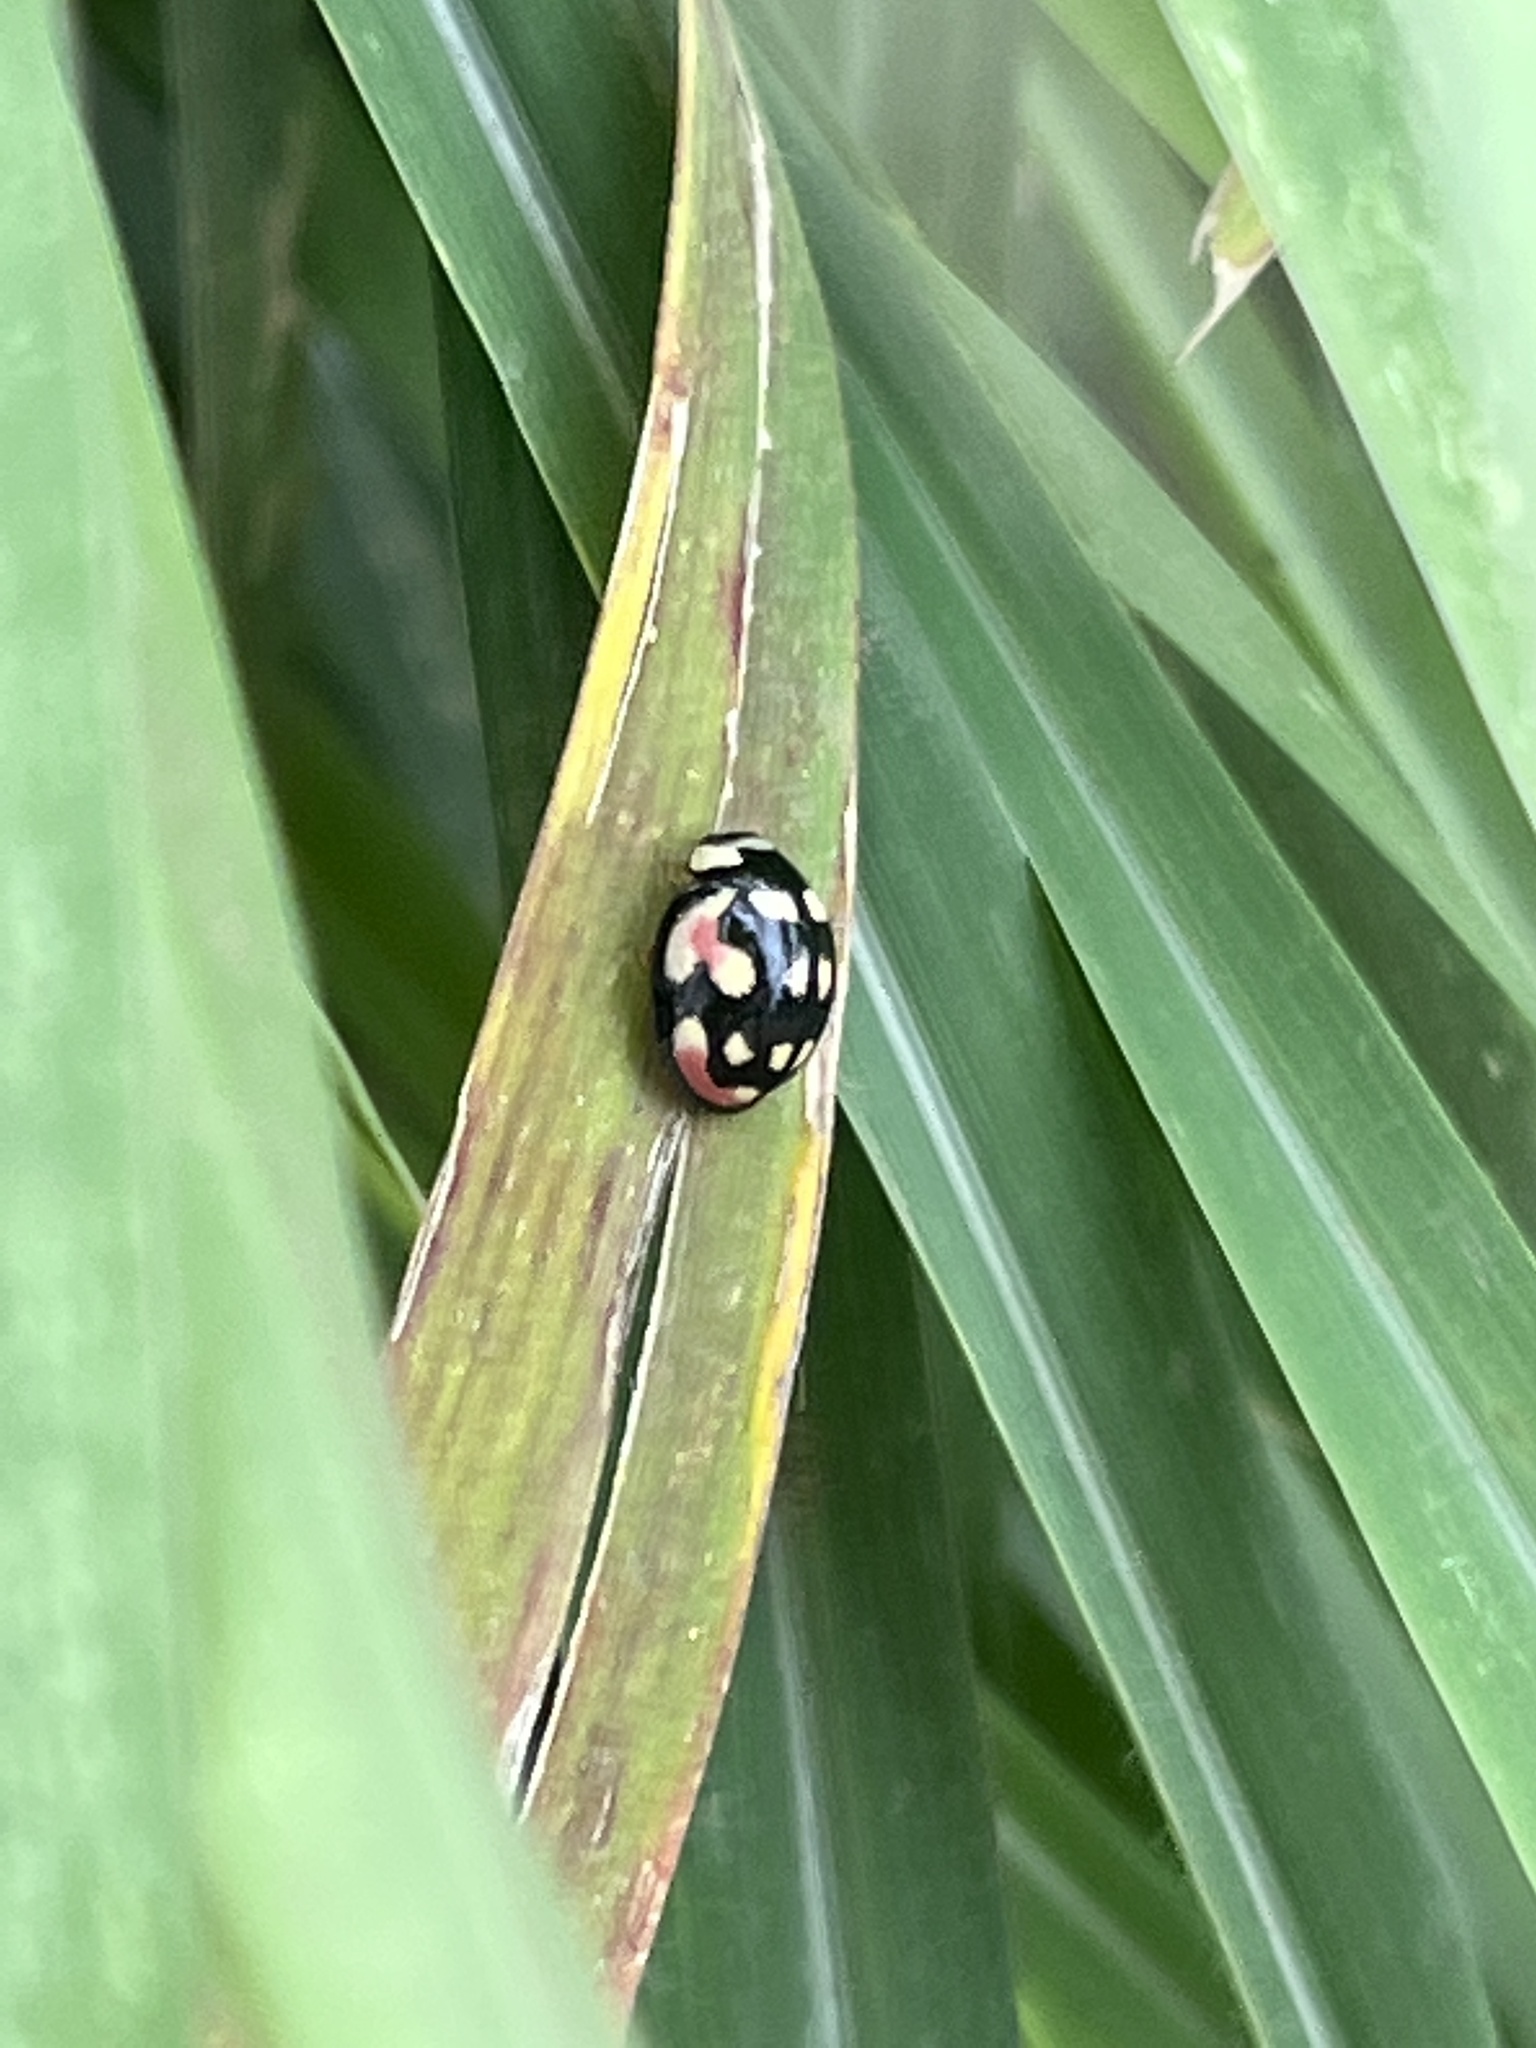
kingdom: Animalia
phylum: Arthropoda
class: Insecta
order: Coleoptera
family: Coccinellidae
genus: Cheilomenes
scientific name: Cheilomenes sulphurea
